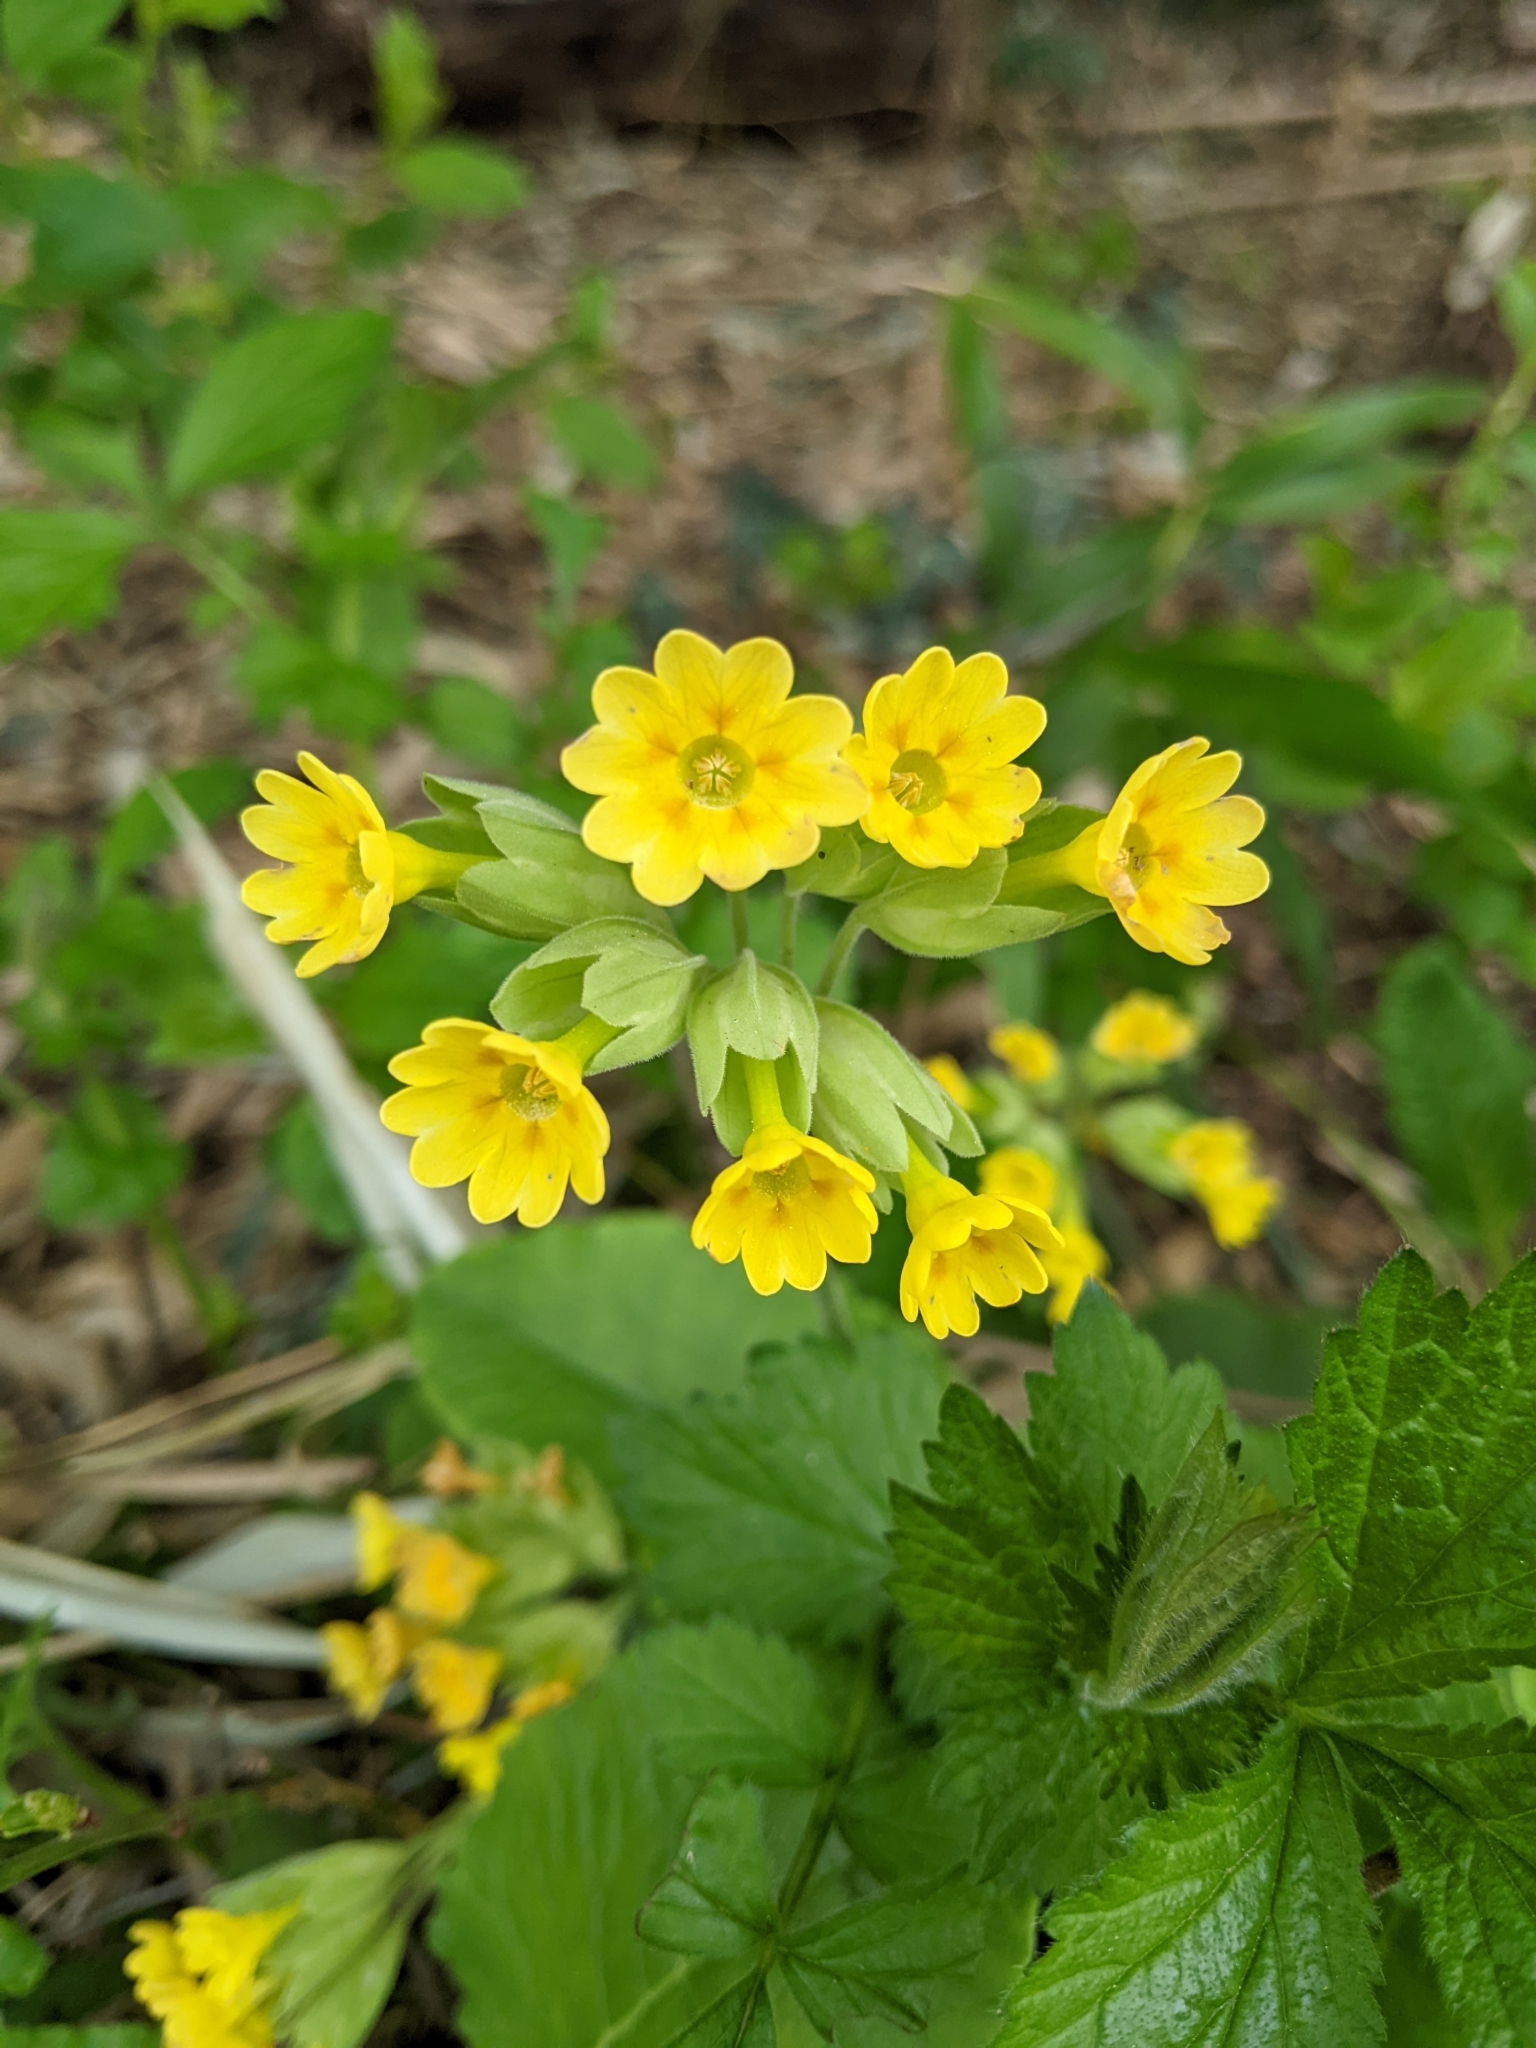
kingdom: Plantae
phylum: Tracheophyta
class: Magnoliopsida
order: Ericales
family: Primulaceae
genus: Primula
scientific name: Primula veris
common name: Cowslip
